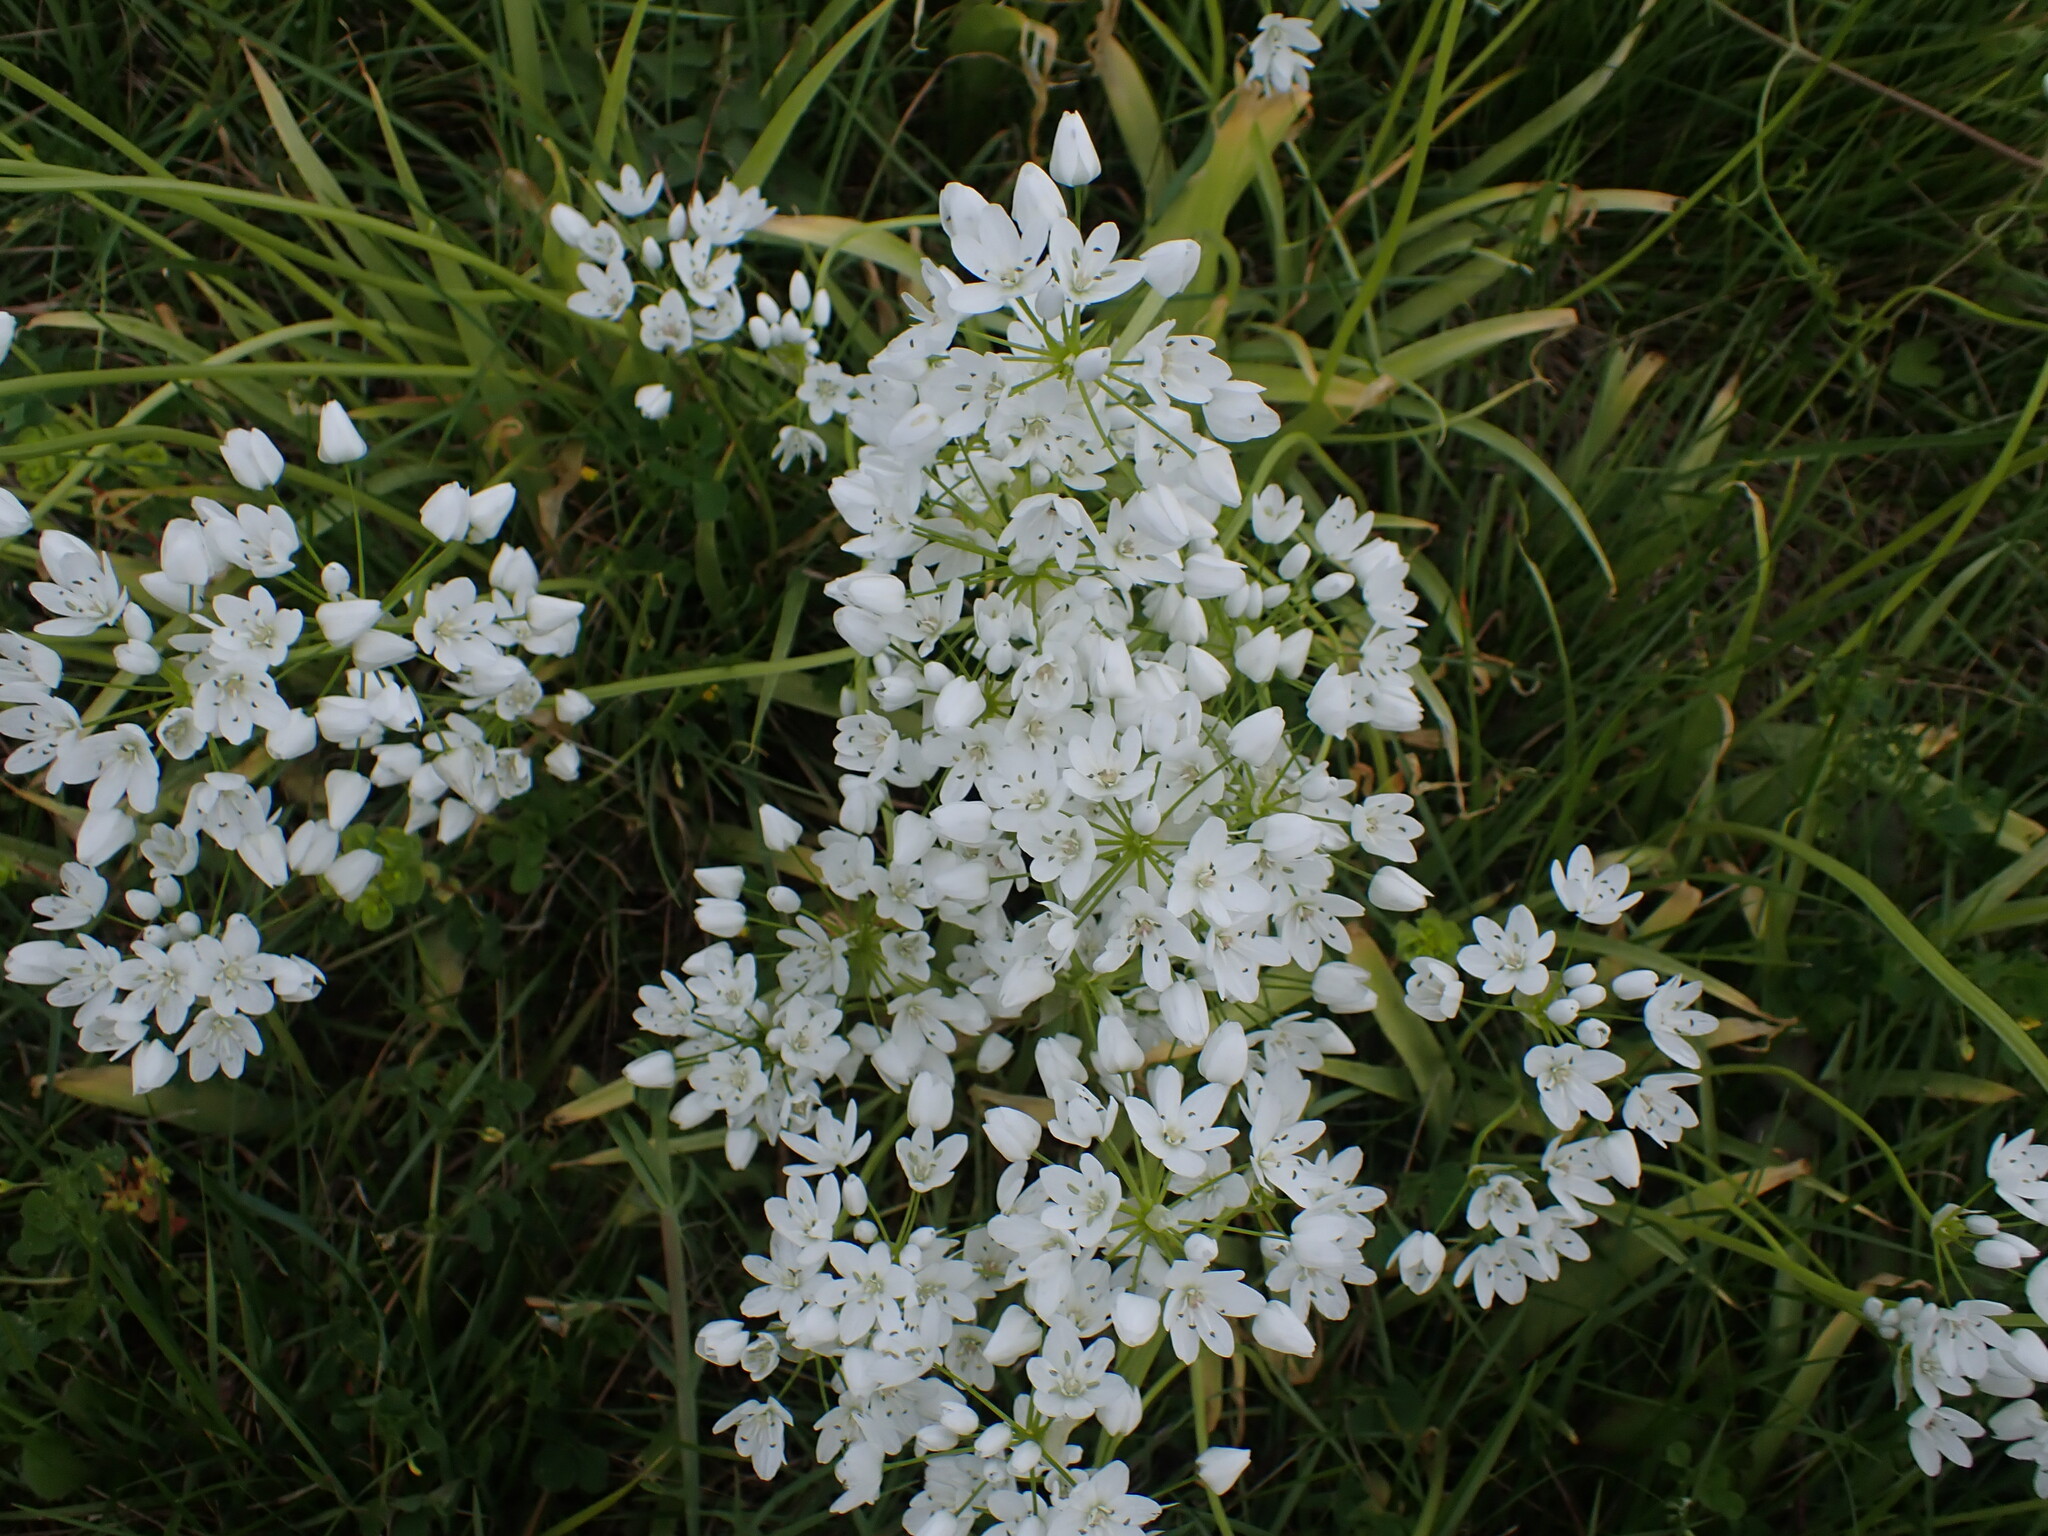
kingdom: Plantae
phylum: Tracheophyta
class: Liliopsida
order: Asparagales
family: Amaryllidaceae
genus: Allium
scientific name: Allium neapolitanum
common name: Neapolitan garlic
